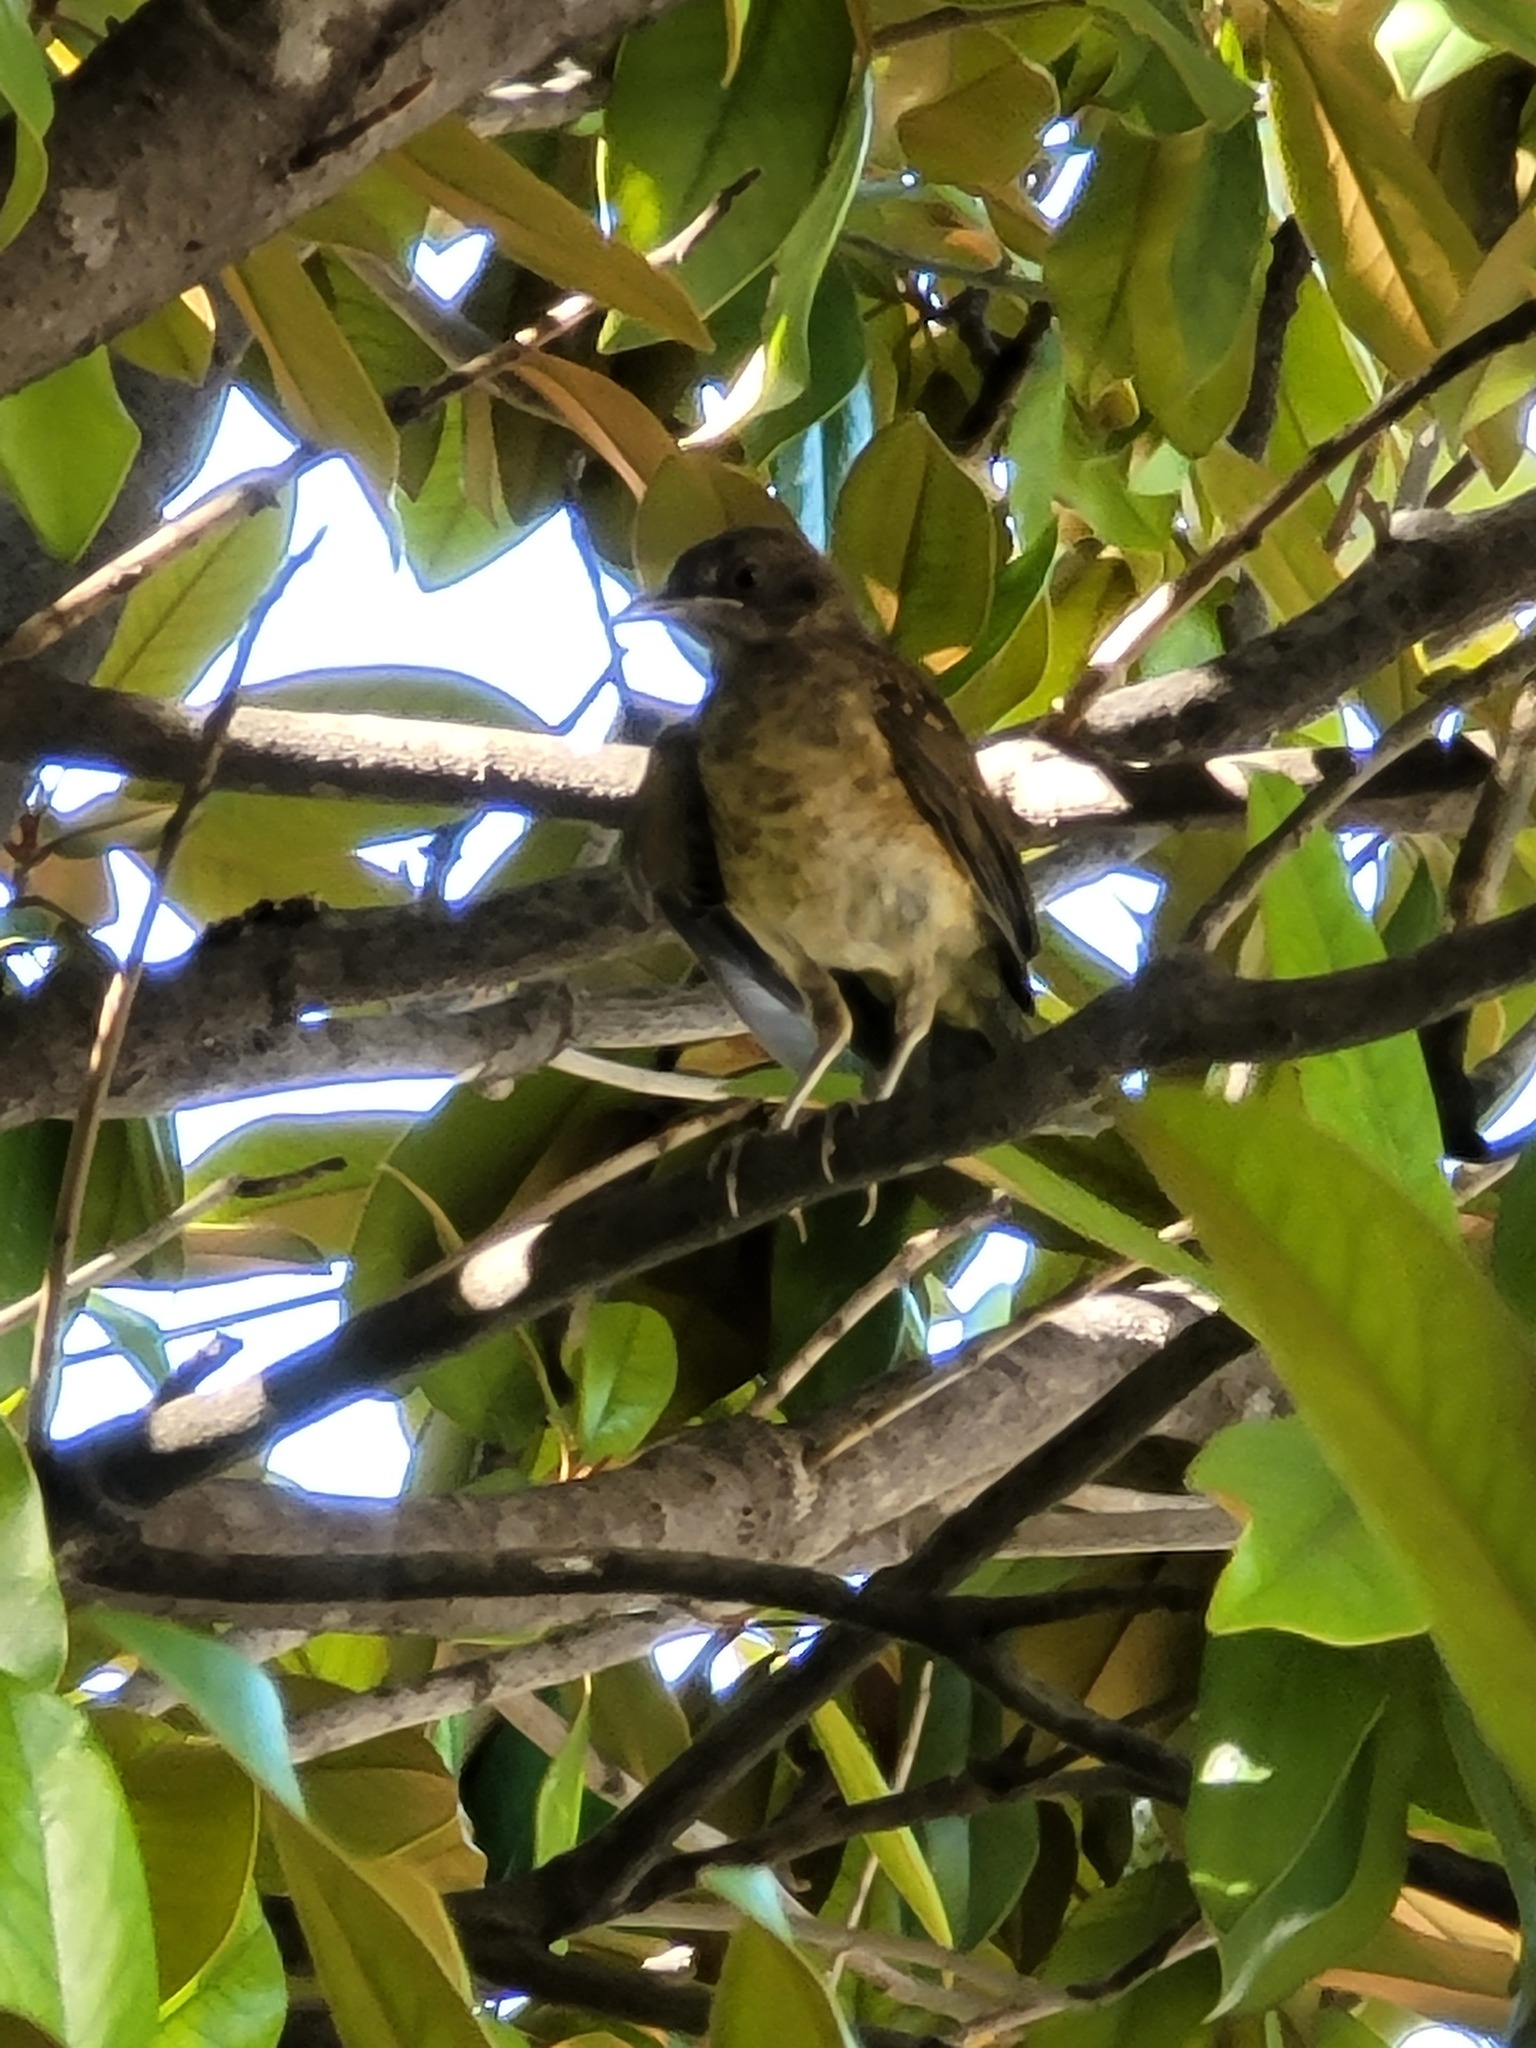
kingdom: Animalia
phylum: Chordata
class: Aves
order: Passeriformes
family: Turdidae
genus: Turdus
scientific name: Turdus grayi
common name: Clay-colored thrush
